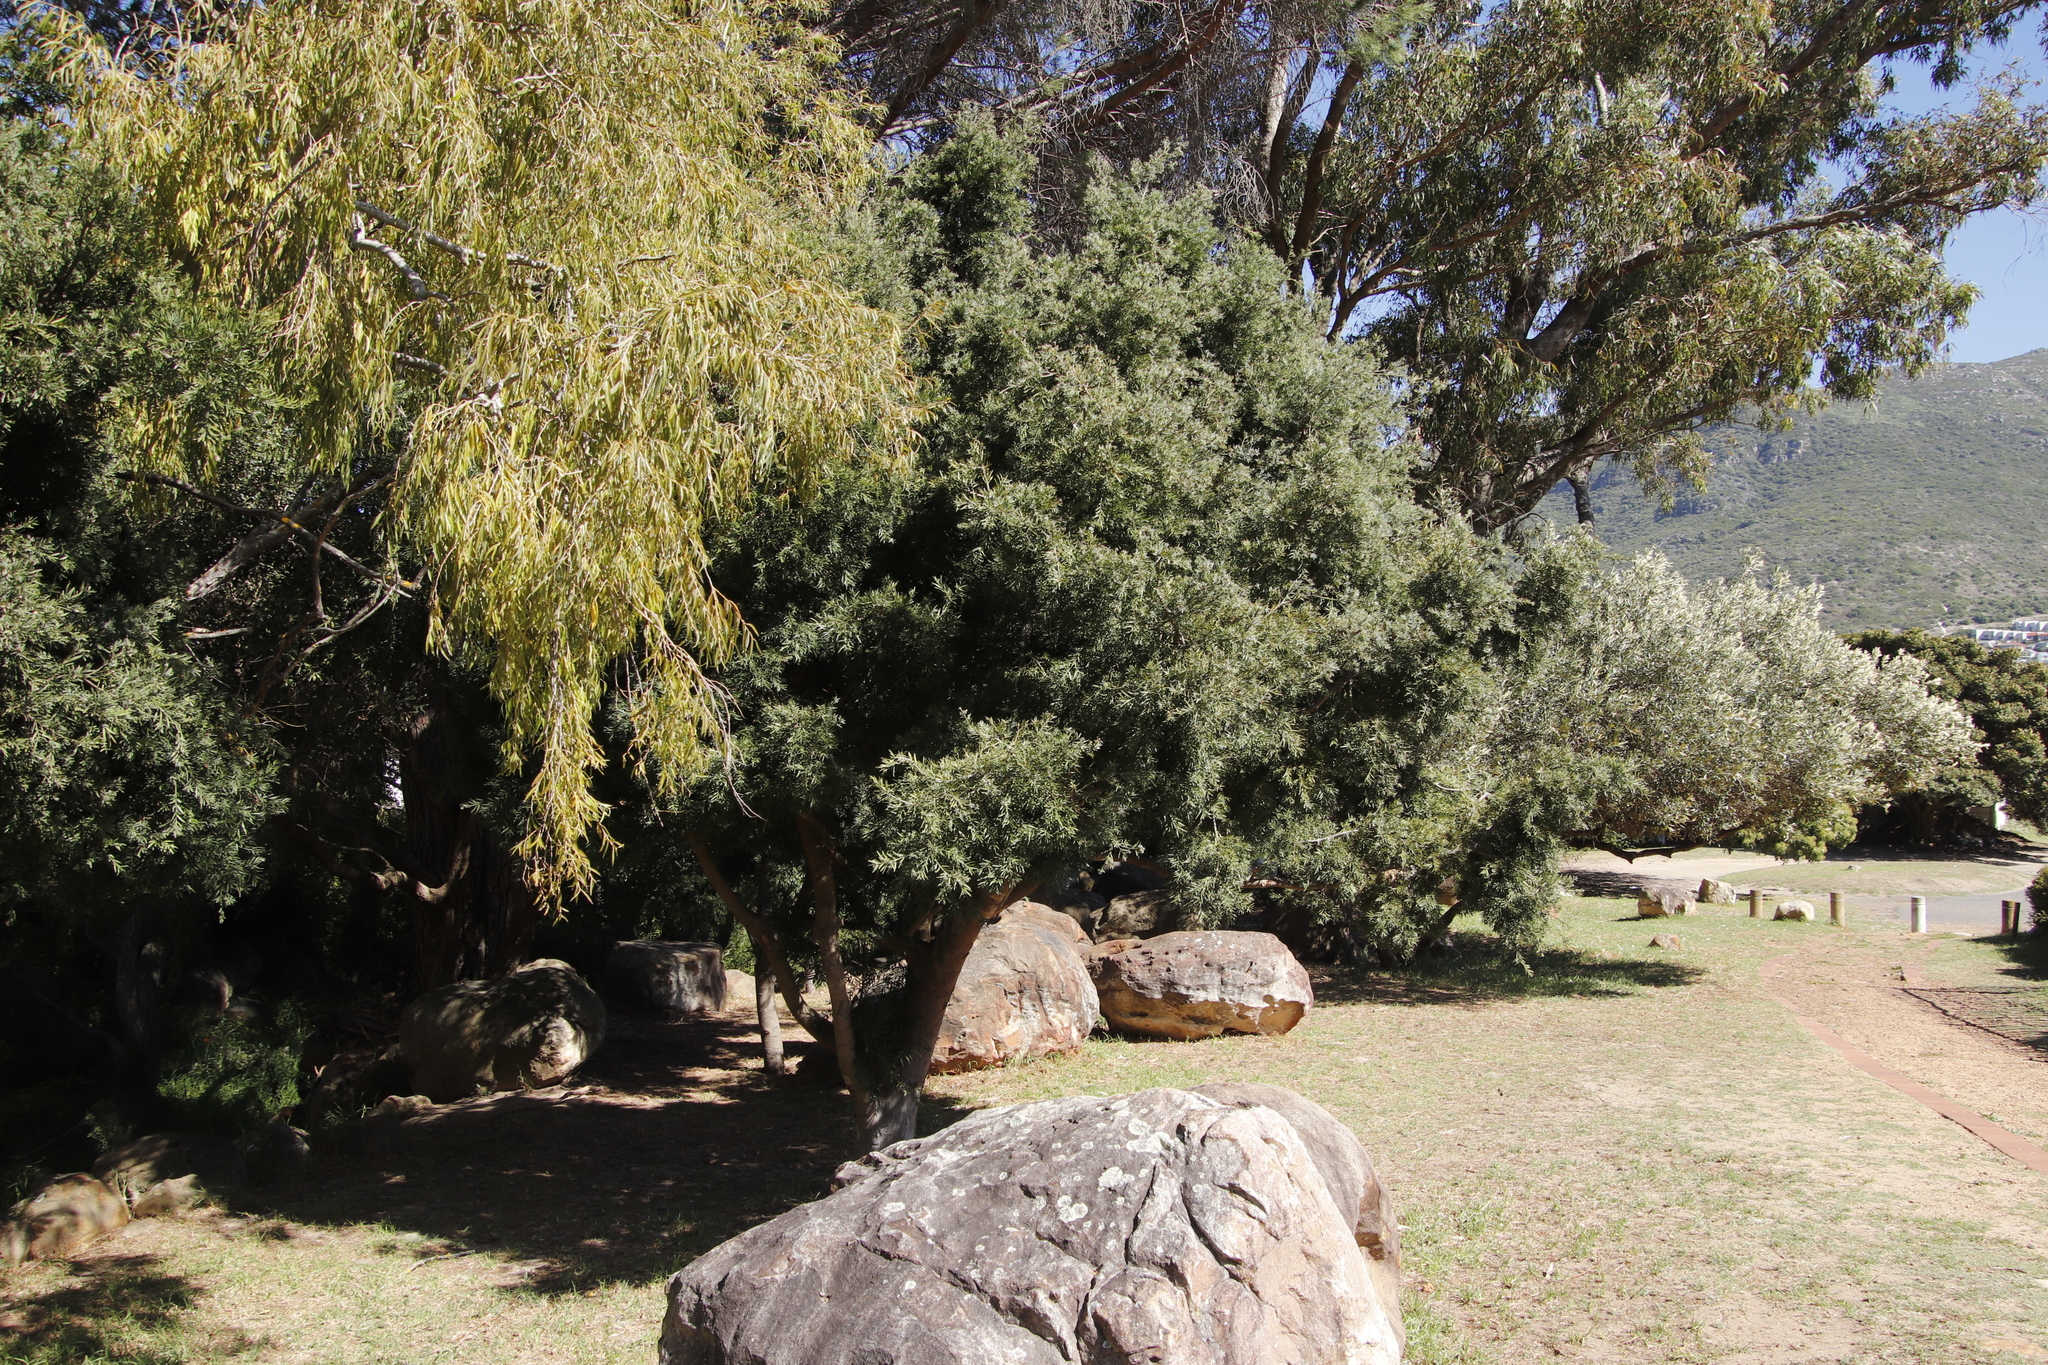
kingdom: Plantae
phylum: Tracheophyta
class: Pinopsida
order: Pinales
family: Podocarpaceae
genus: Afrocarpus
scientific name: Afrocarpus falcatus
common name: Bastard yellowwood
